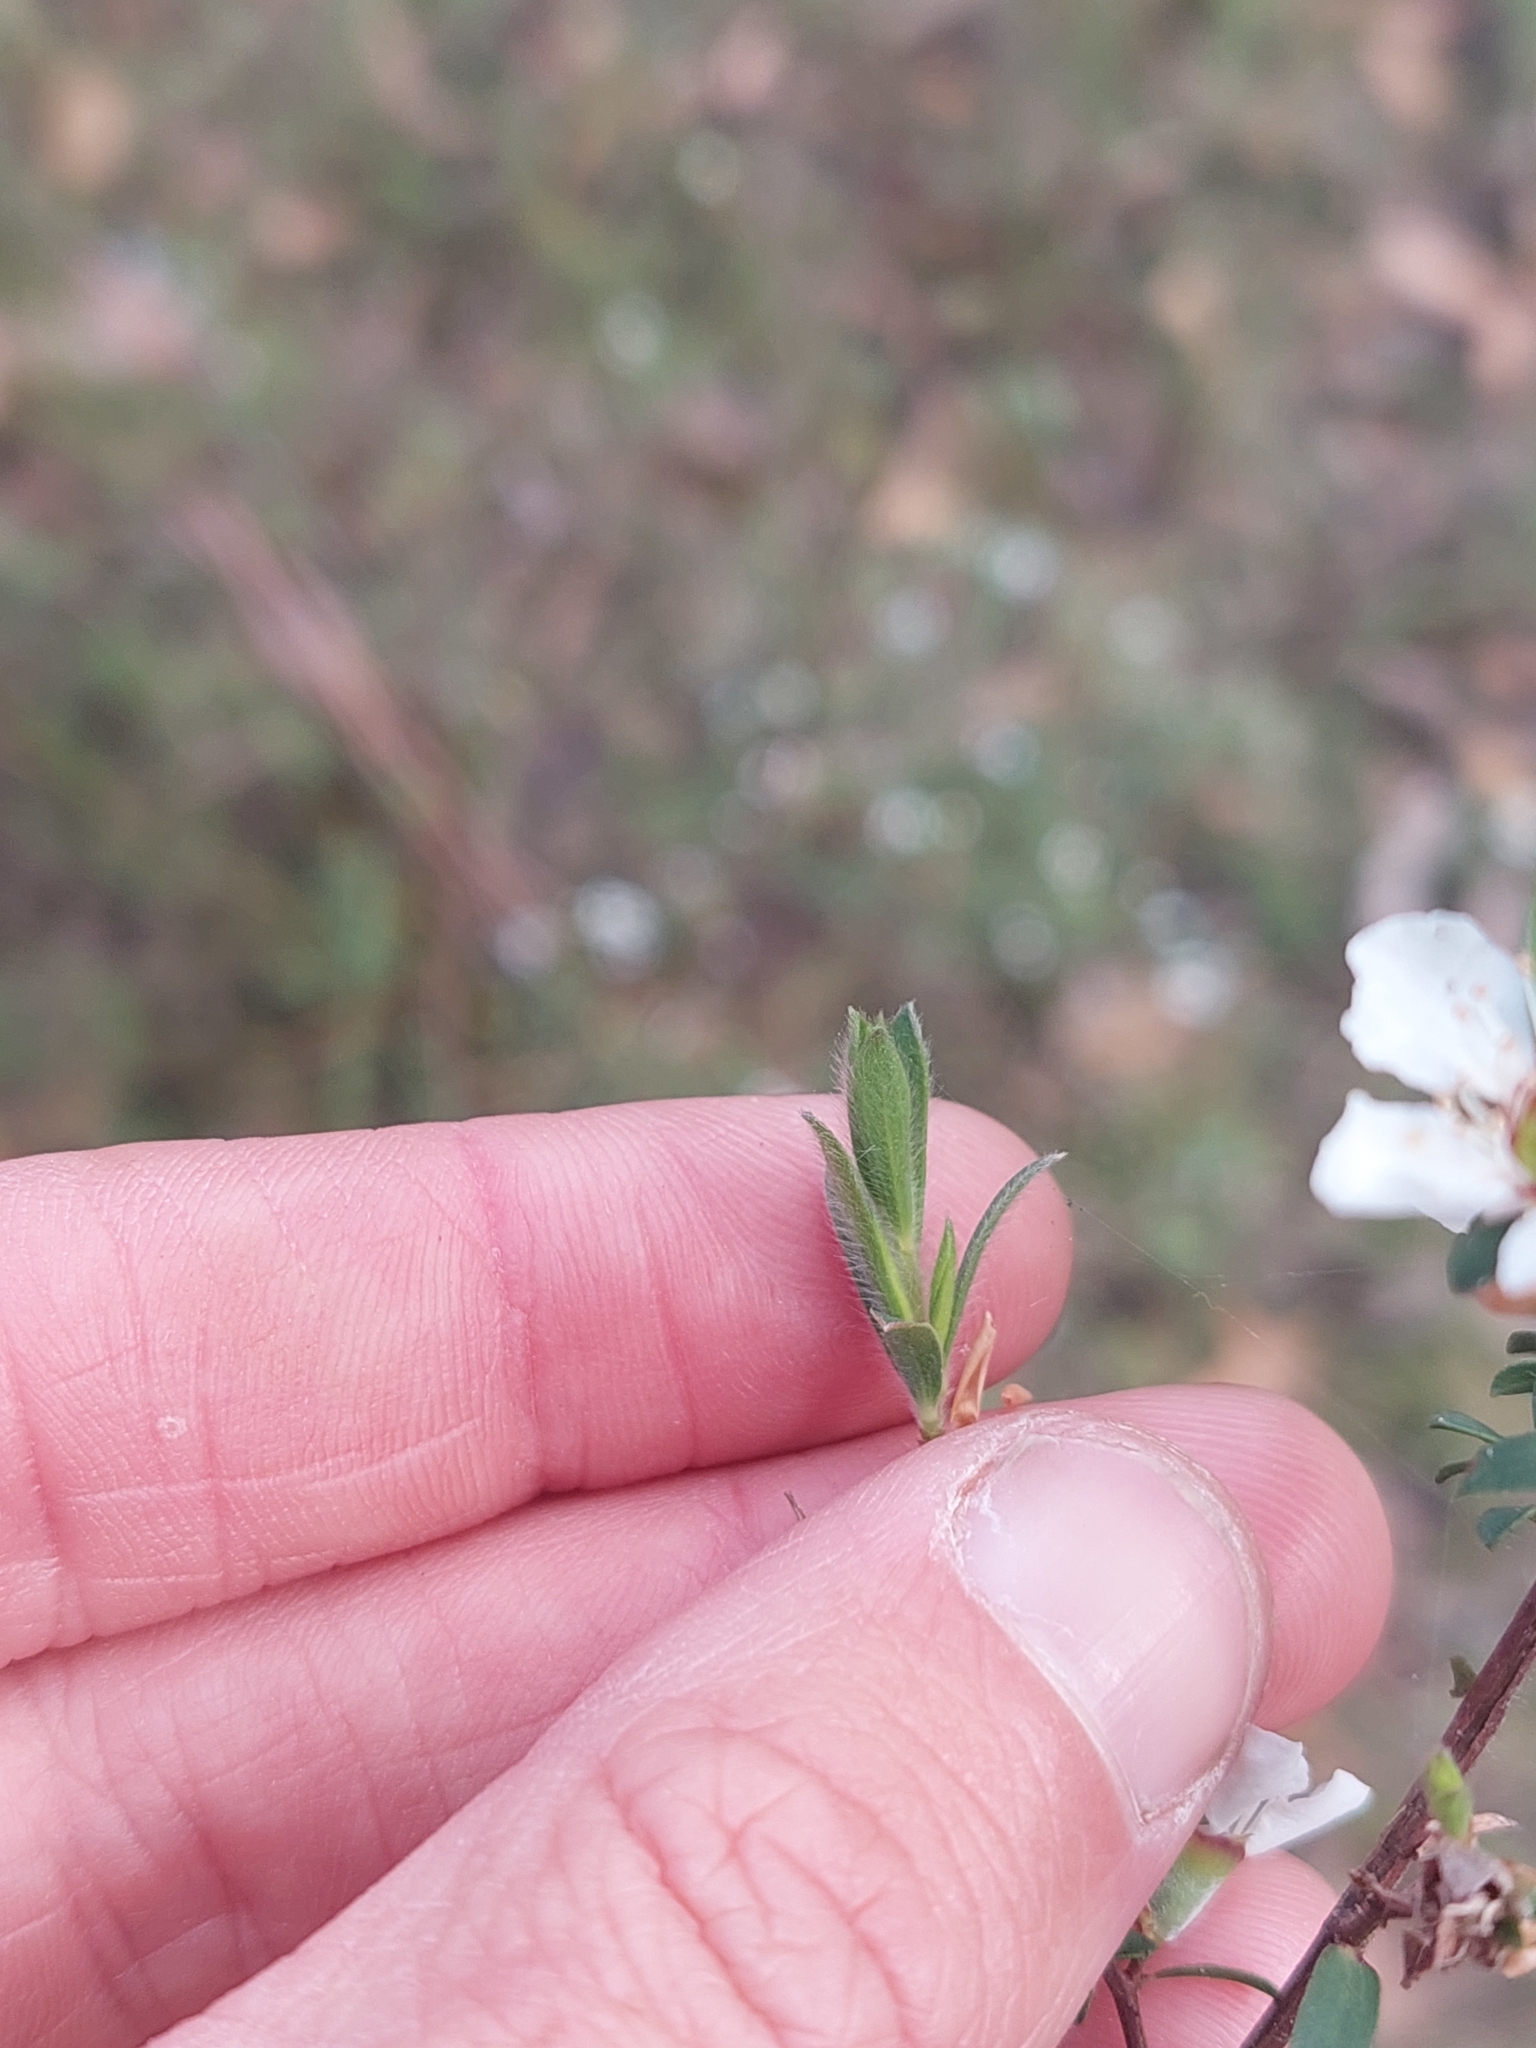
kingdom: Plantae
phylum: Tracheophyta
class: Magnoliopsida
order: Myrtales
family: Myrtaceae
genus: Leptospermum
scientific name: Leptospermum myrsinoides
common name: Heath teatree
